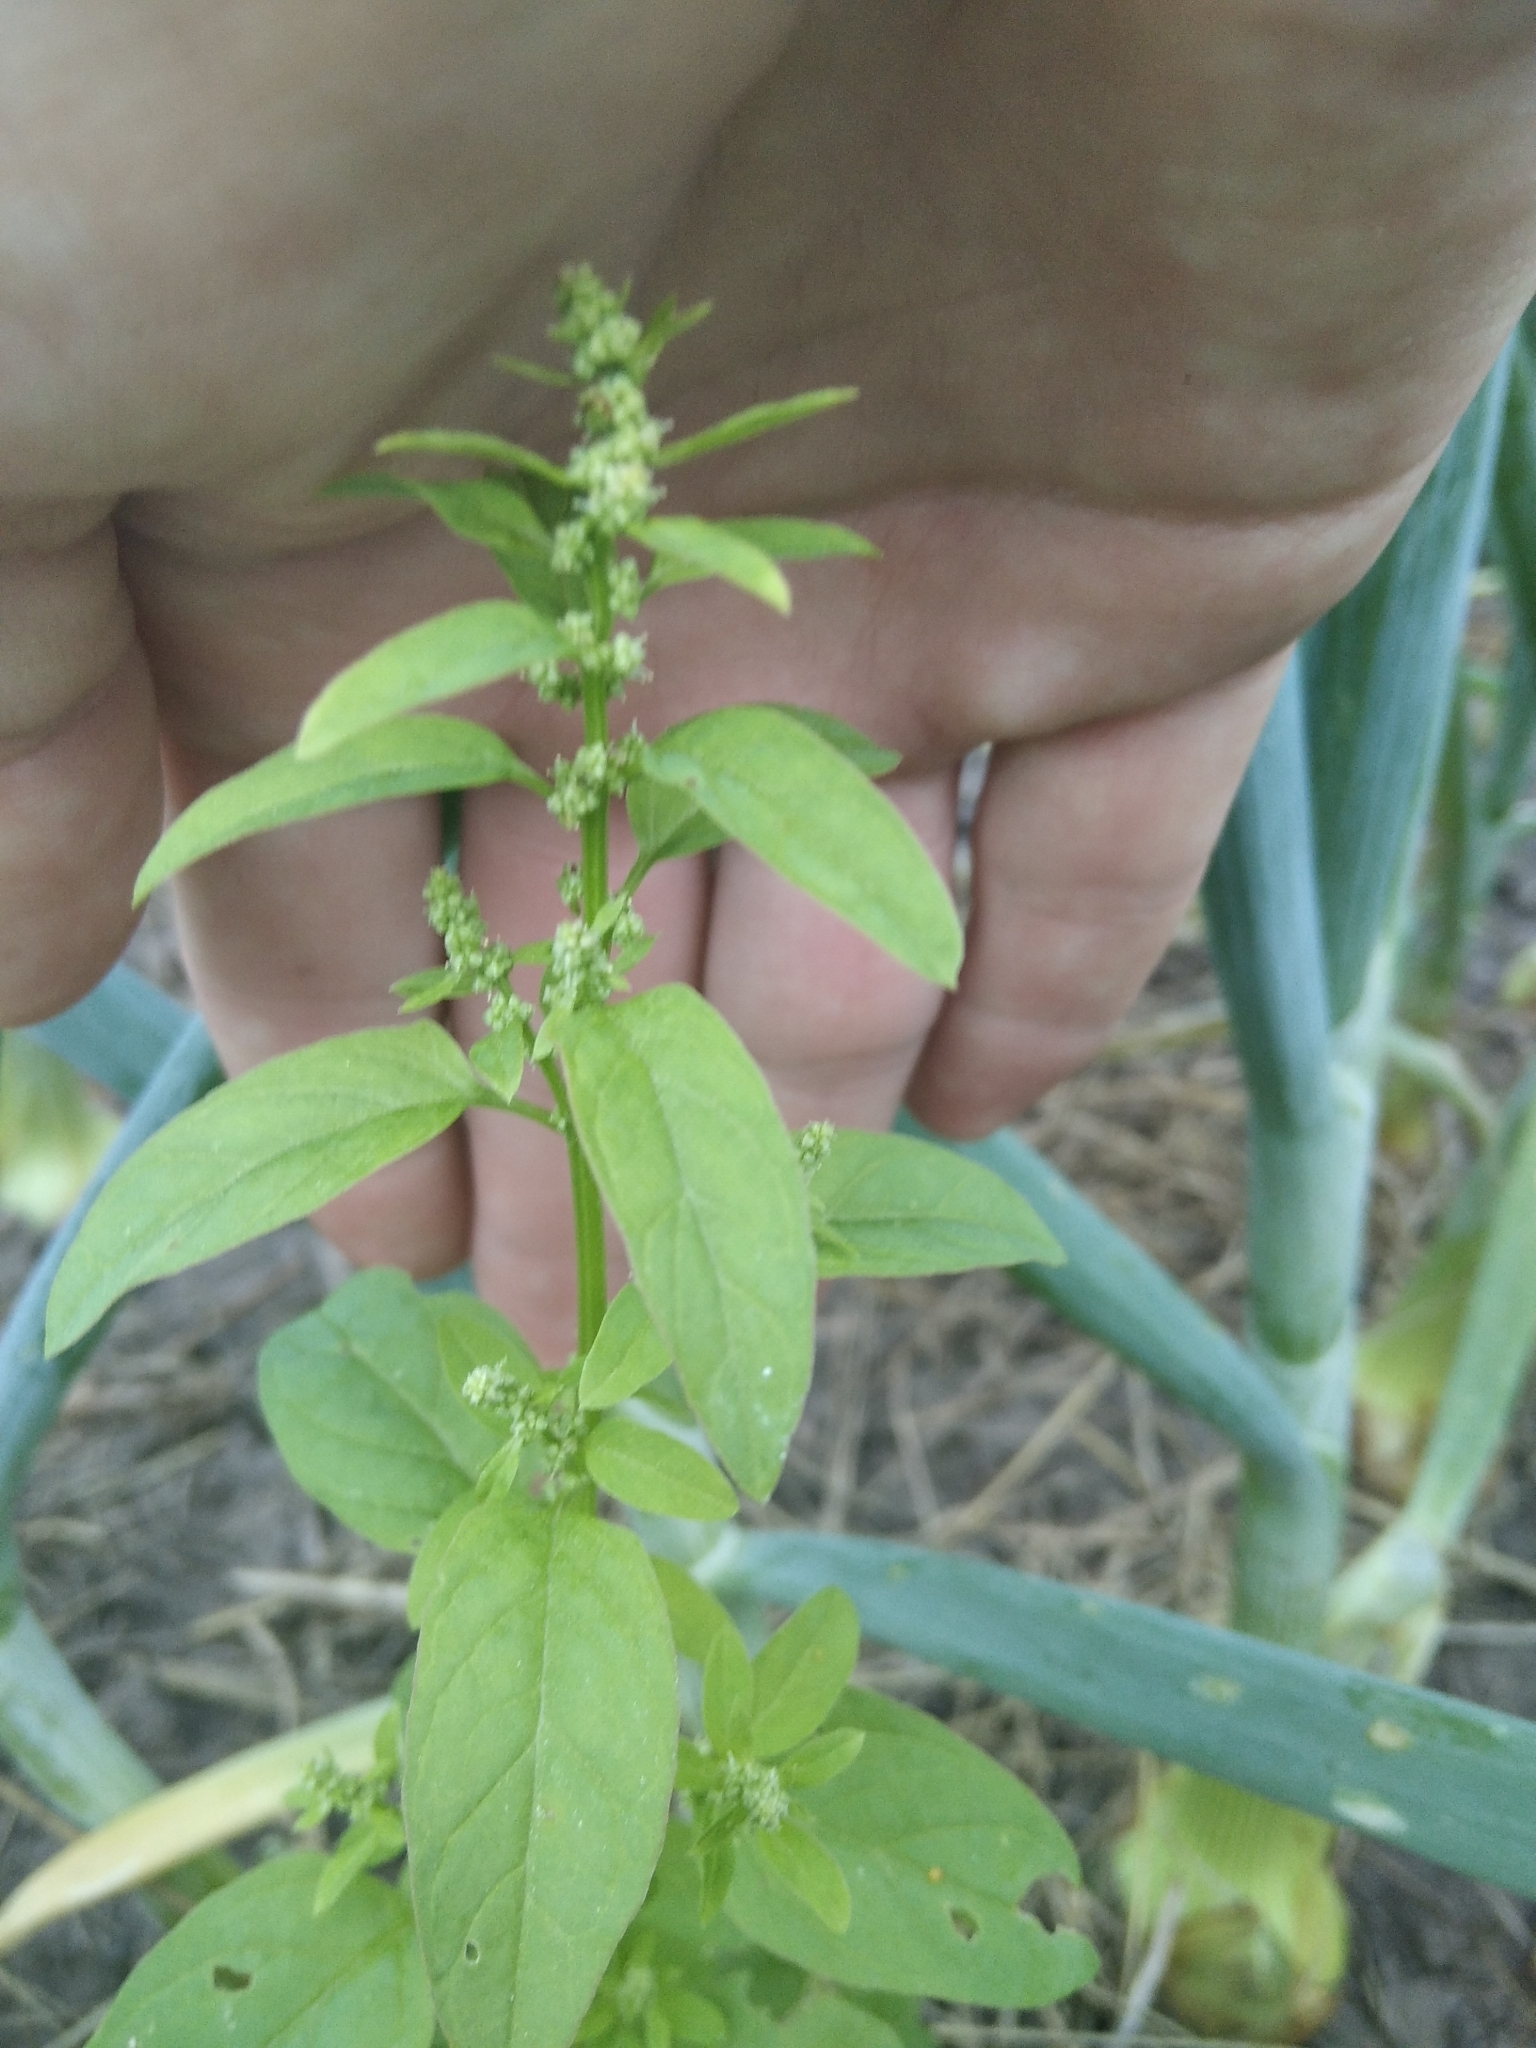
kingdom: Plantae
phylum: Tracheophyta
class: Magnoliopsida
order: Caryophyllales
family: Amaranthaceae
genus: Lipandra
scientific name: Lipandra polysperma
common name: Many-seed goosefoot
